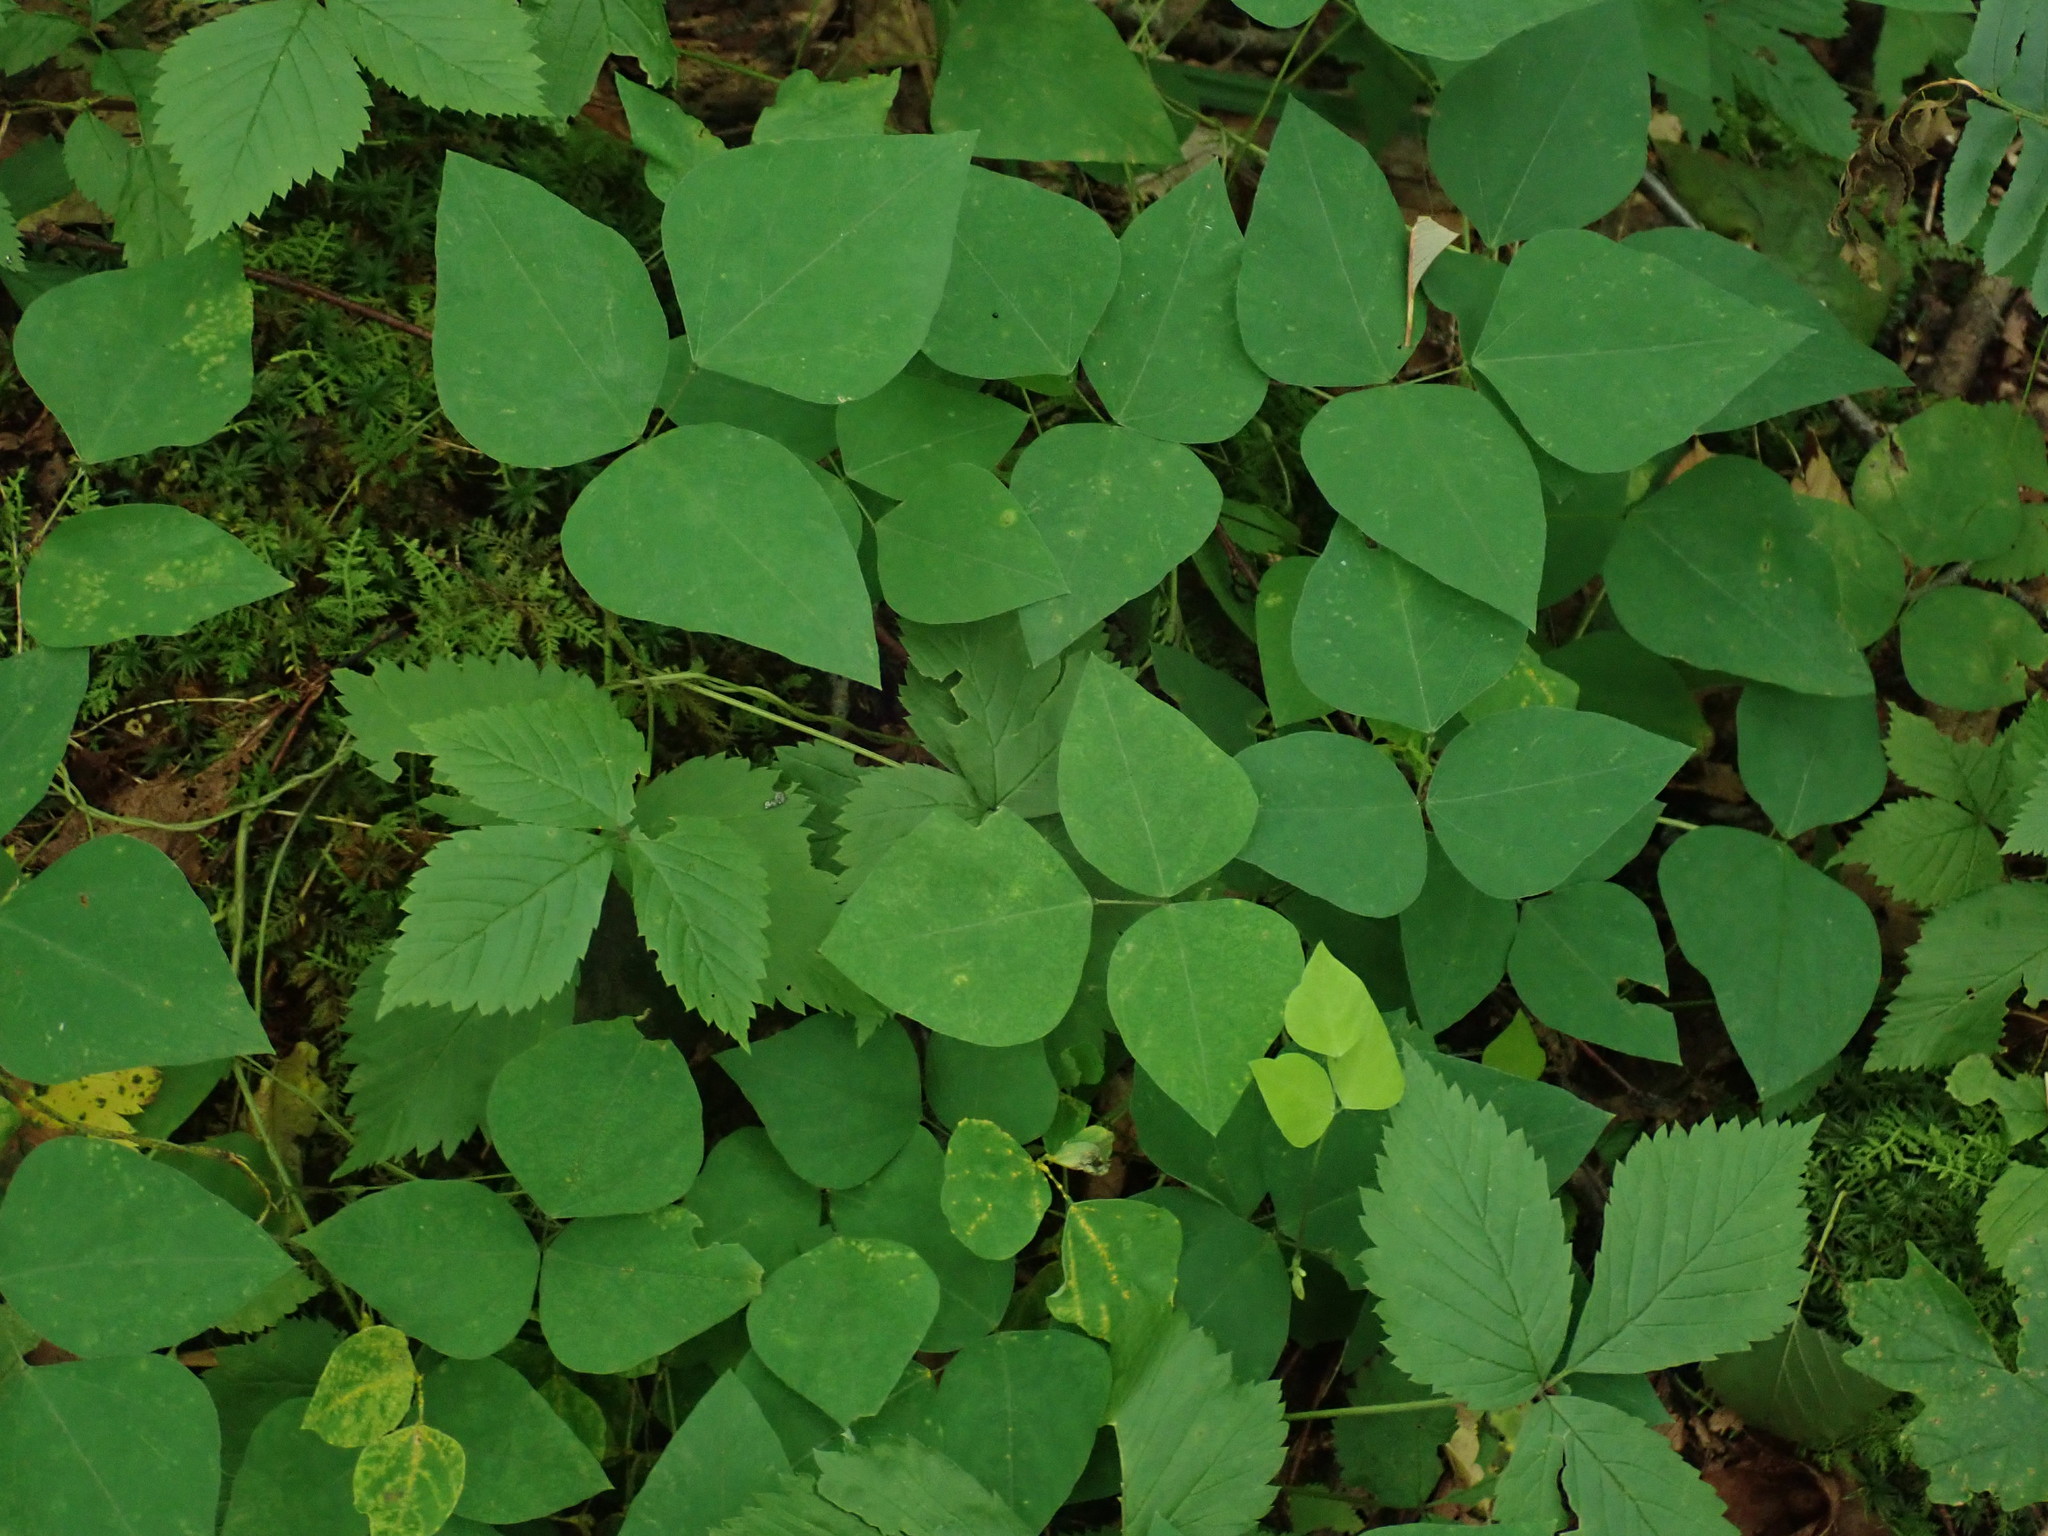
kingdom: Plantae
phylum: Tracheophyta
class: Magnoliopsida
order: Fabales
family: Fabaceae
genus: Amphicarpaea
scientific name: Amphicarpaea bracteata
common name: American hog peanut
